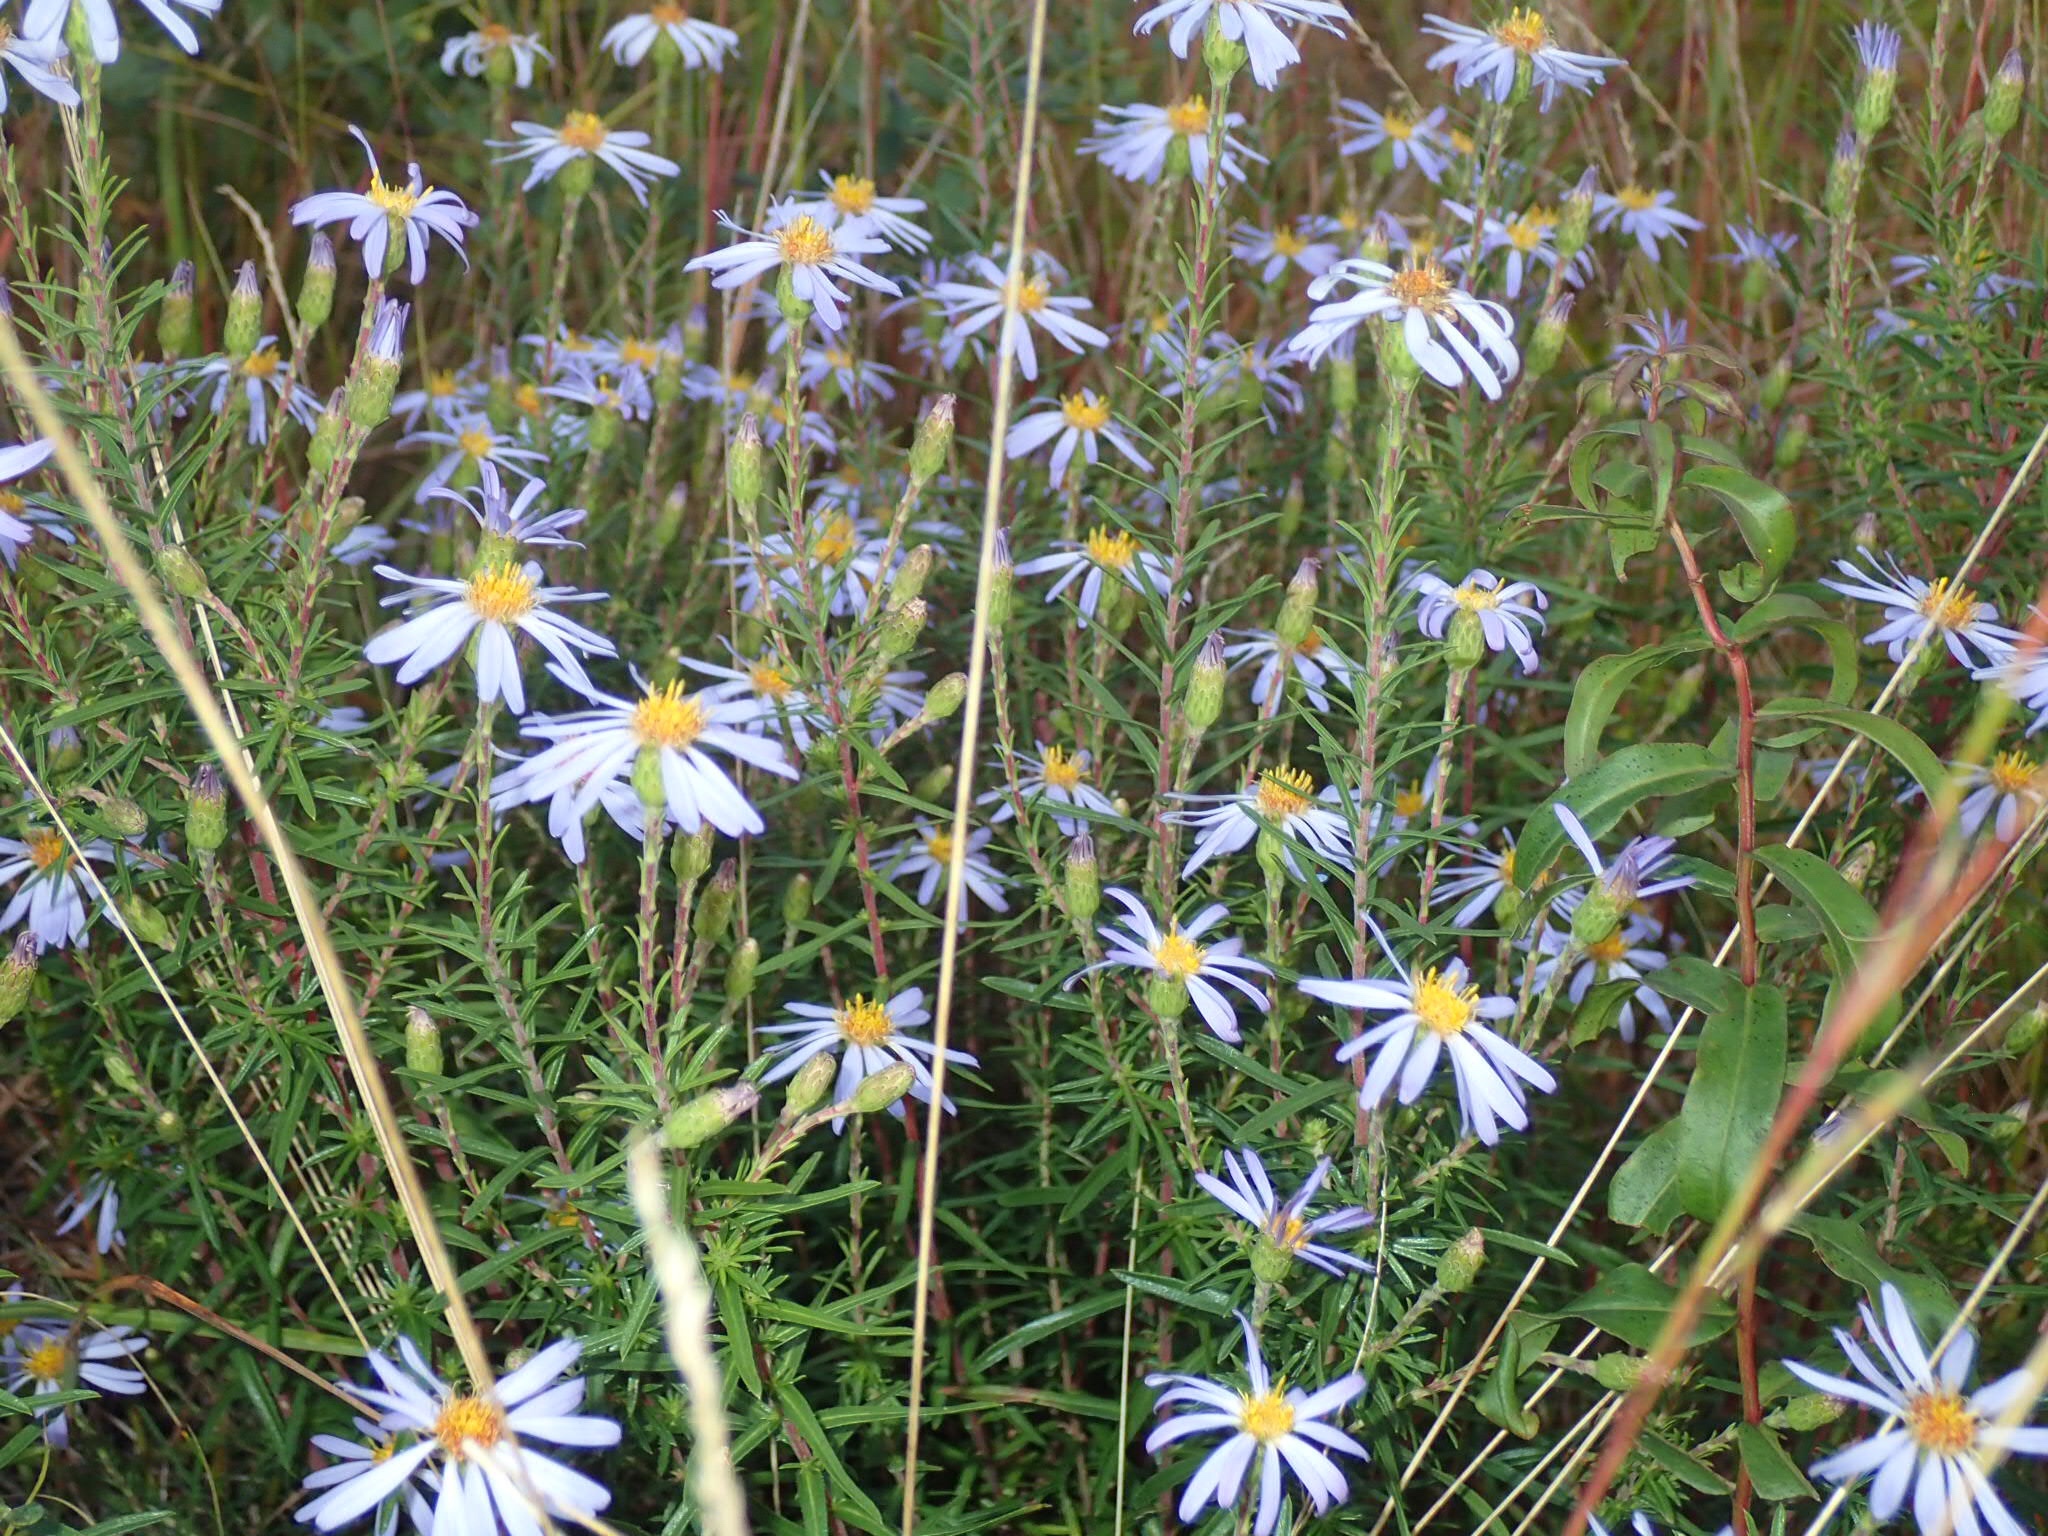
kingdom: Plantae
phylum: Tracheophyta
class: Magnoliopsida
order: Asterales
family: Asteraceae
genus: Ionactis
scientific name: Ionactis linariifolia
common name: Flax-leaf aster
